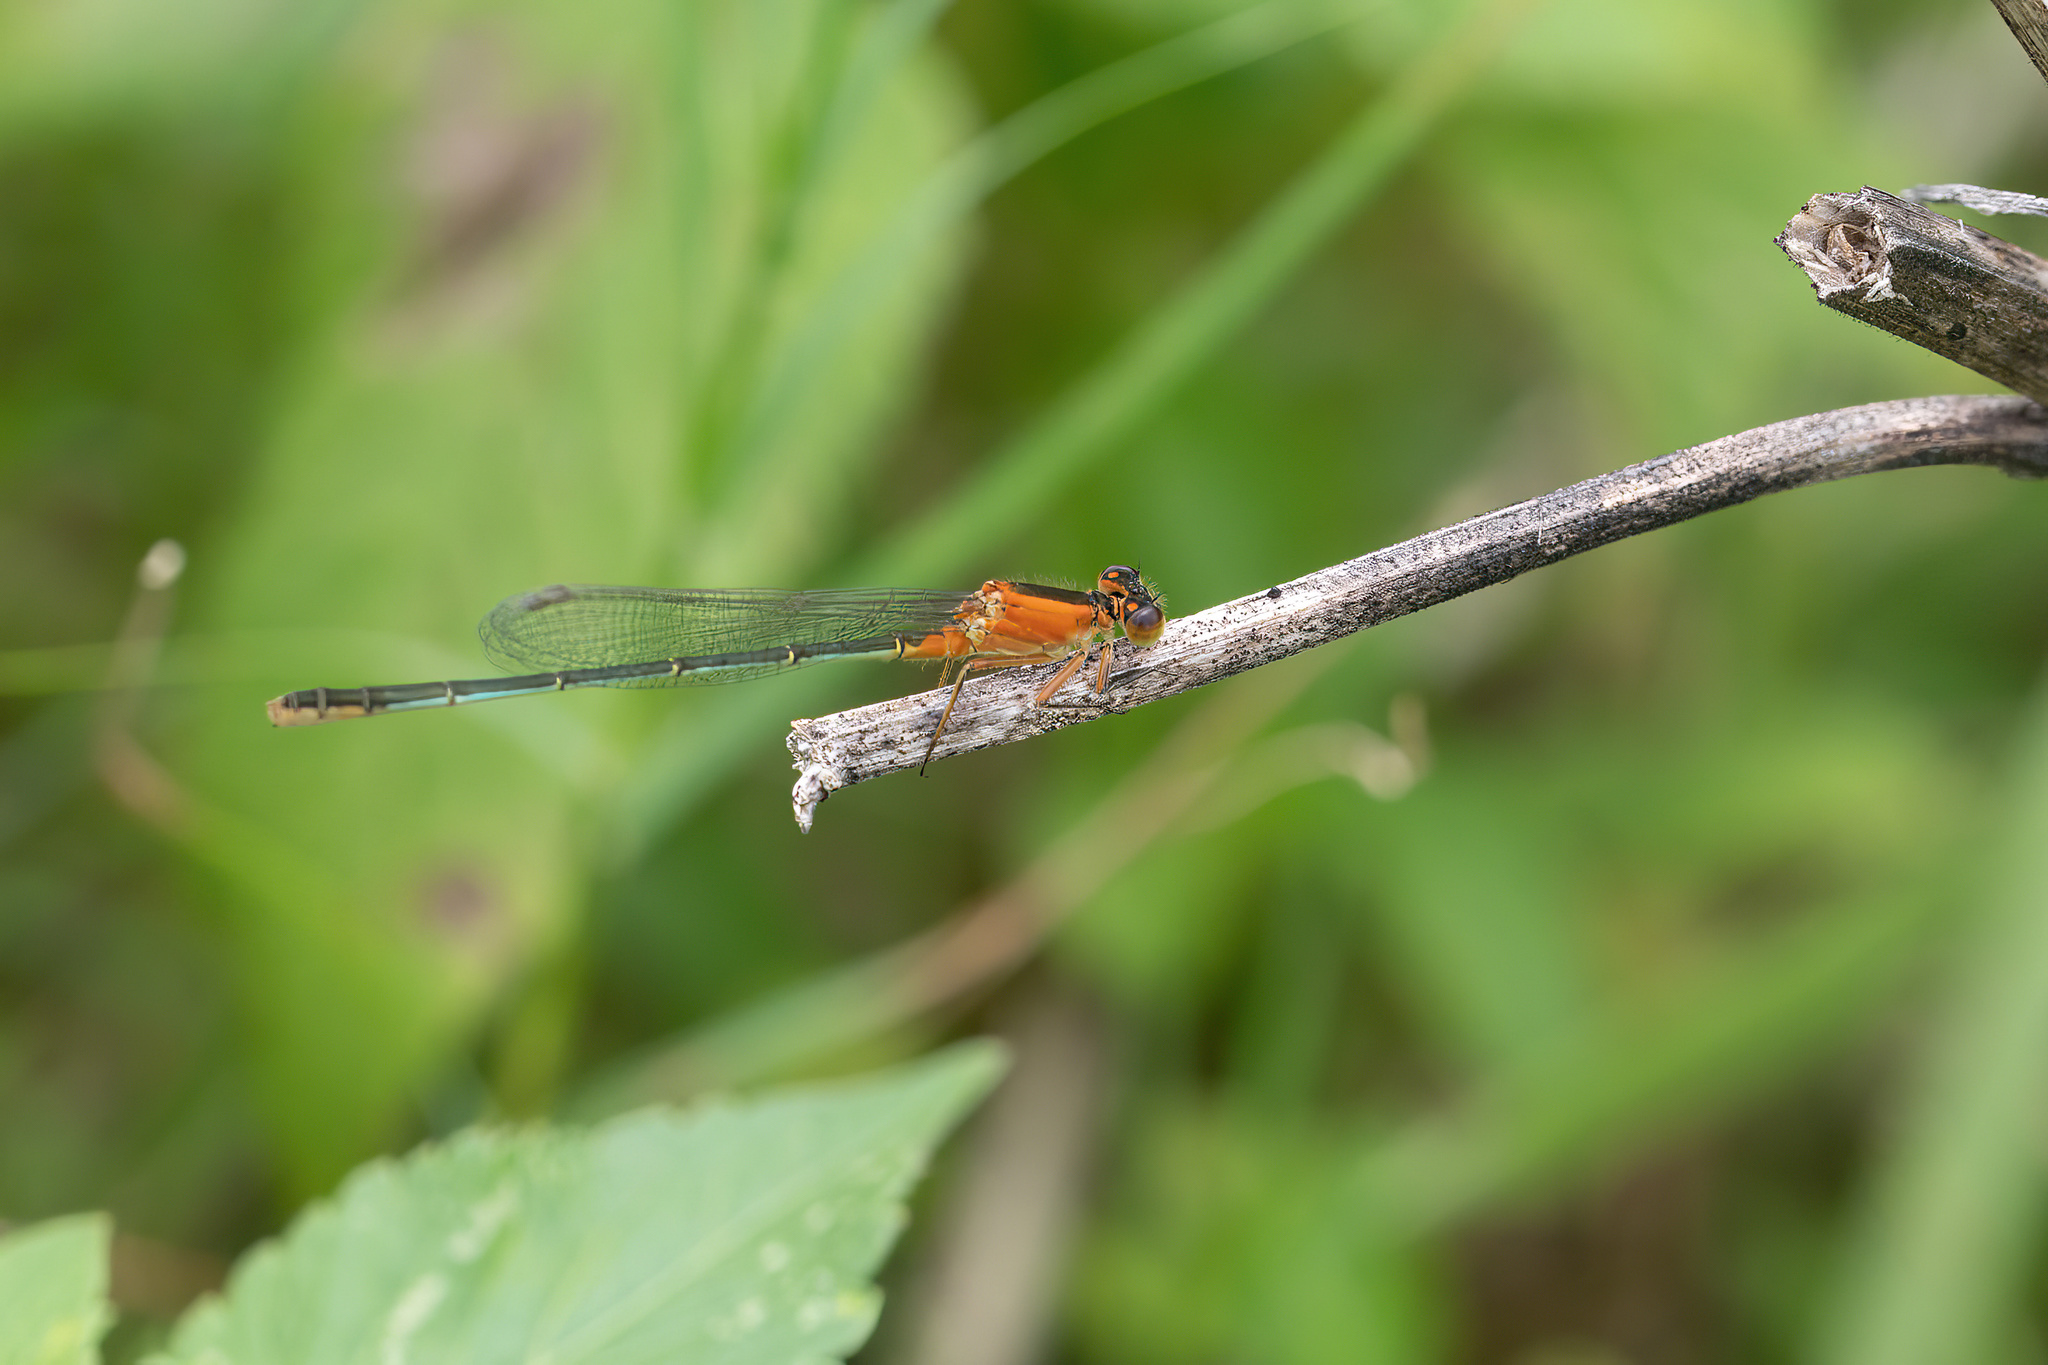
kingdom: Animalia
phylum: Arthropoda
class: Insecta
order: Odonata
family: Coenagrionidae
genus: Ischnura
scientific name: Ischnura ramburii
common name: Rambur's forktail
